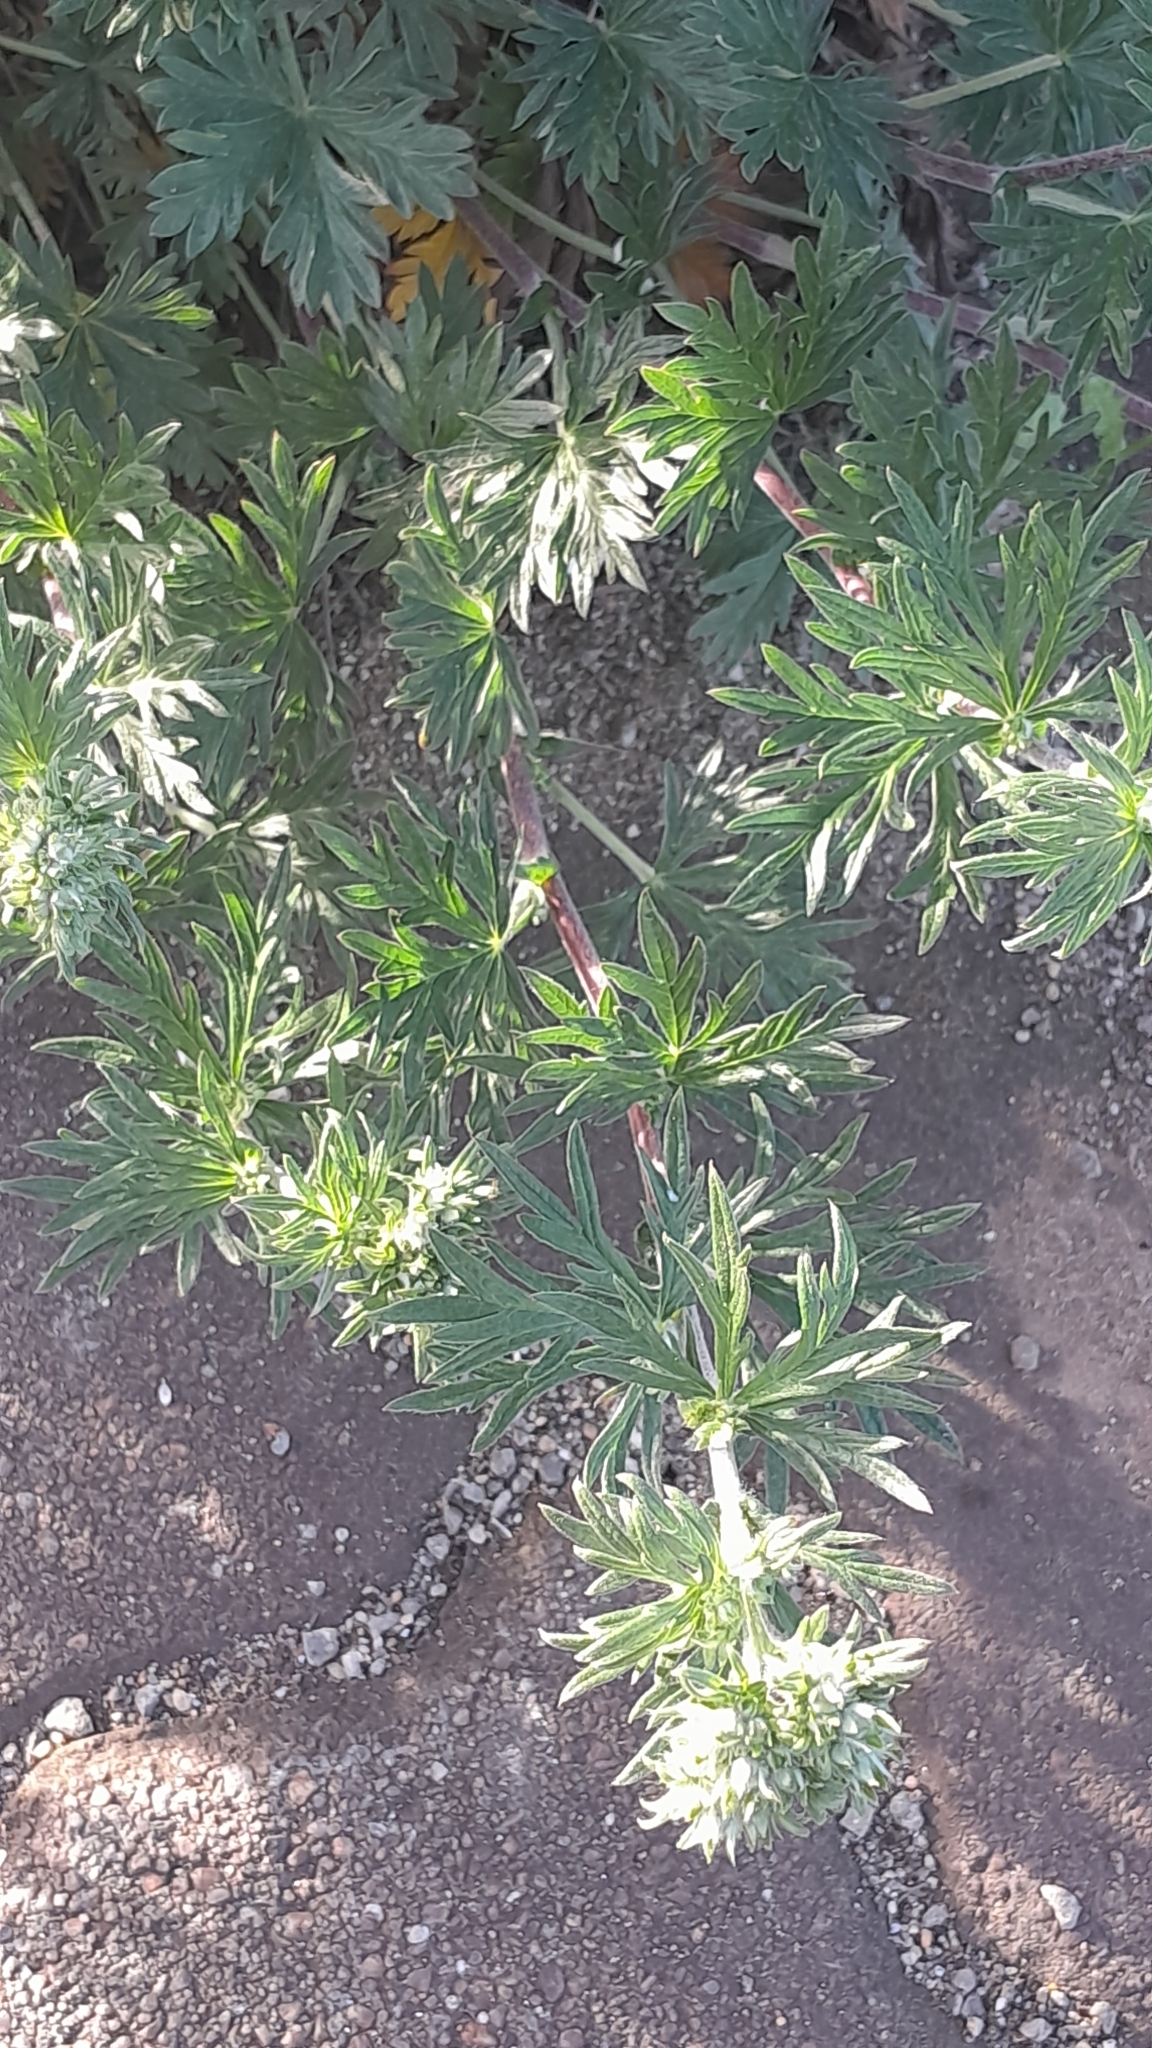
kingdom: Plantae
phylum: Tracheophyta
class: Magnoliopsida
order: Rosales
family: Rosaceae
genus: Potentilla
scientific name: Potentilla argentea
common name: Hoary cinquefoil
